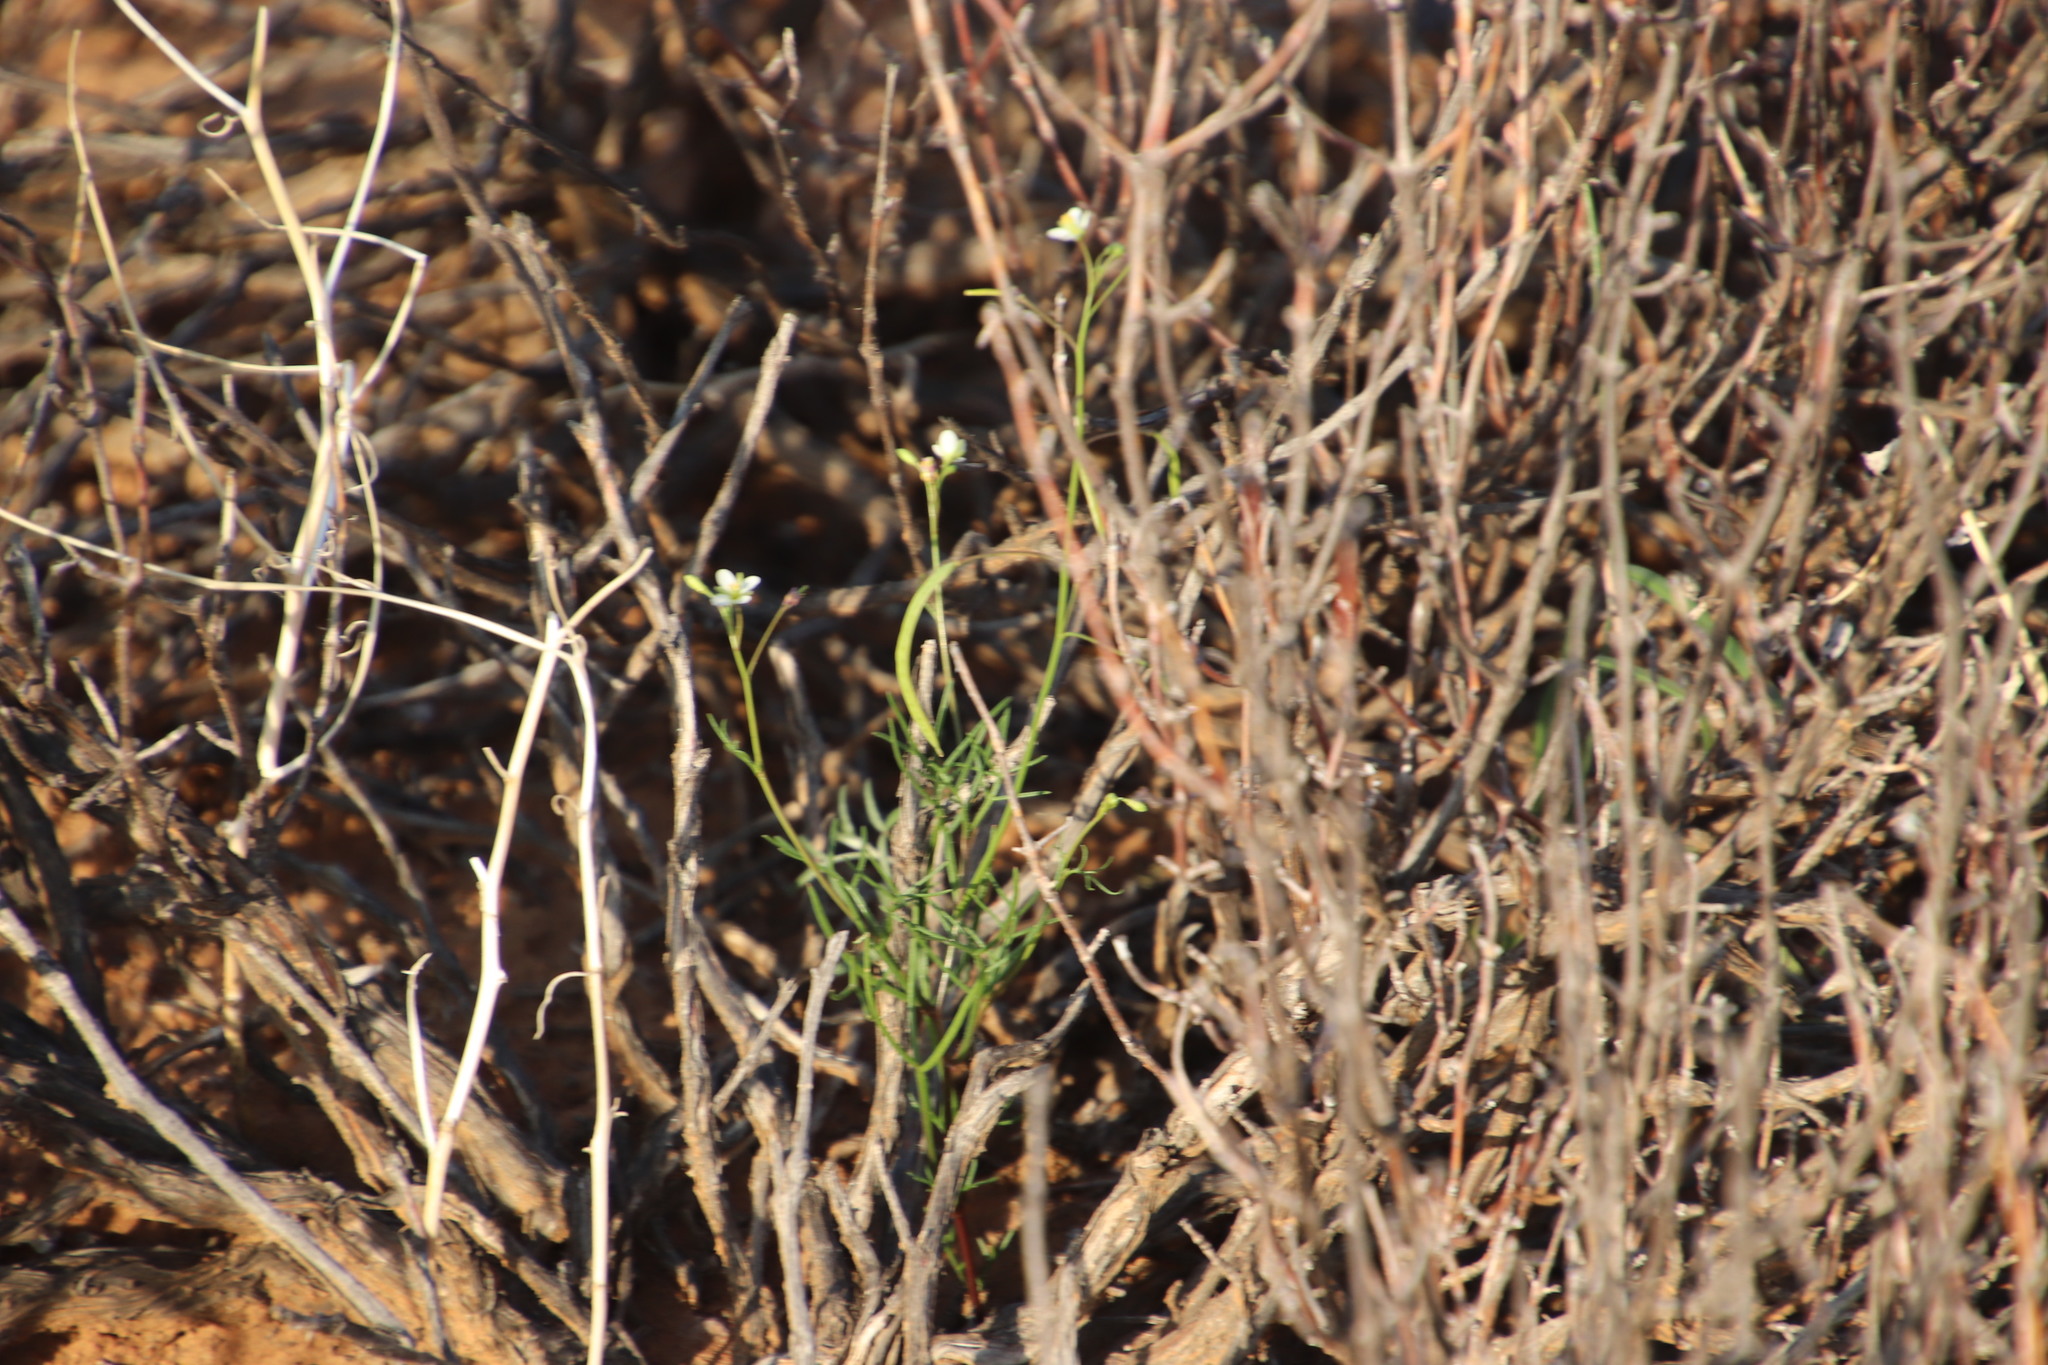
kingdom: Plantae
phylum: Tracheophyta
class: Magnoliopsida
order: Brassicales
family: Brassicaceae
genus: Heliophila
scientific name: Heliophila seselifolia
